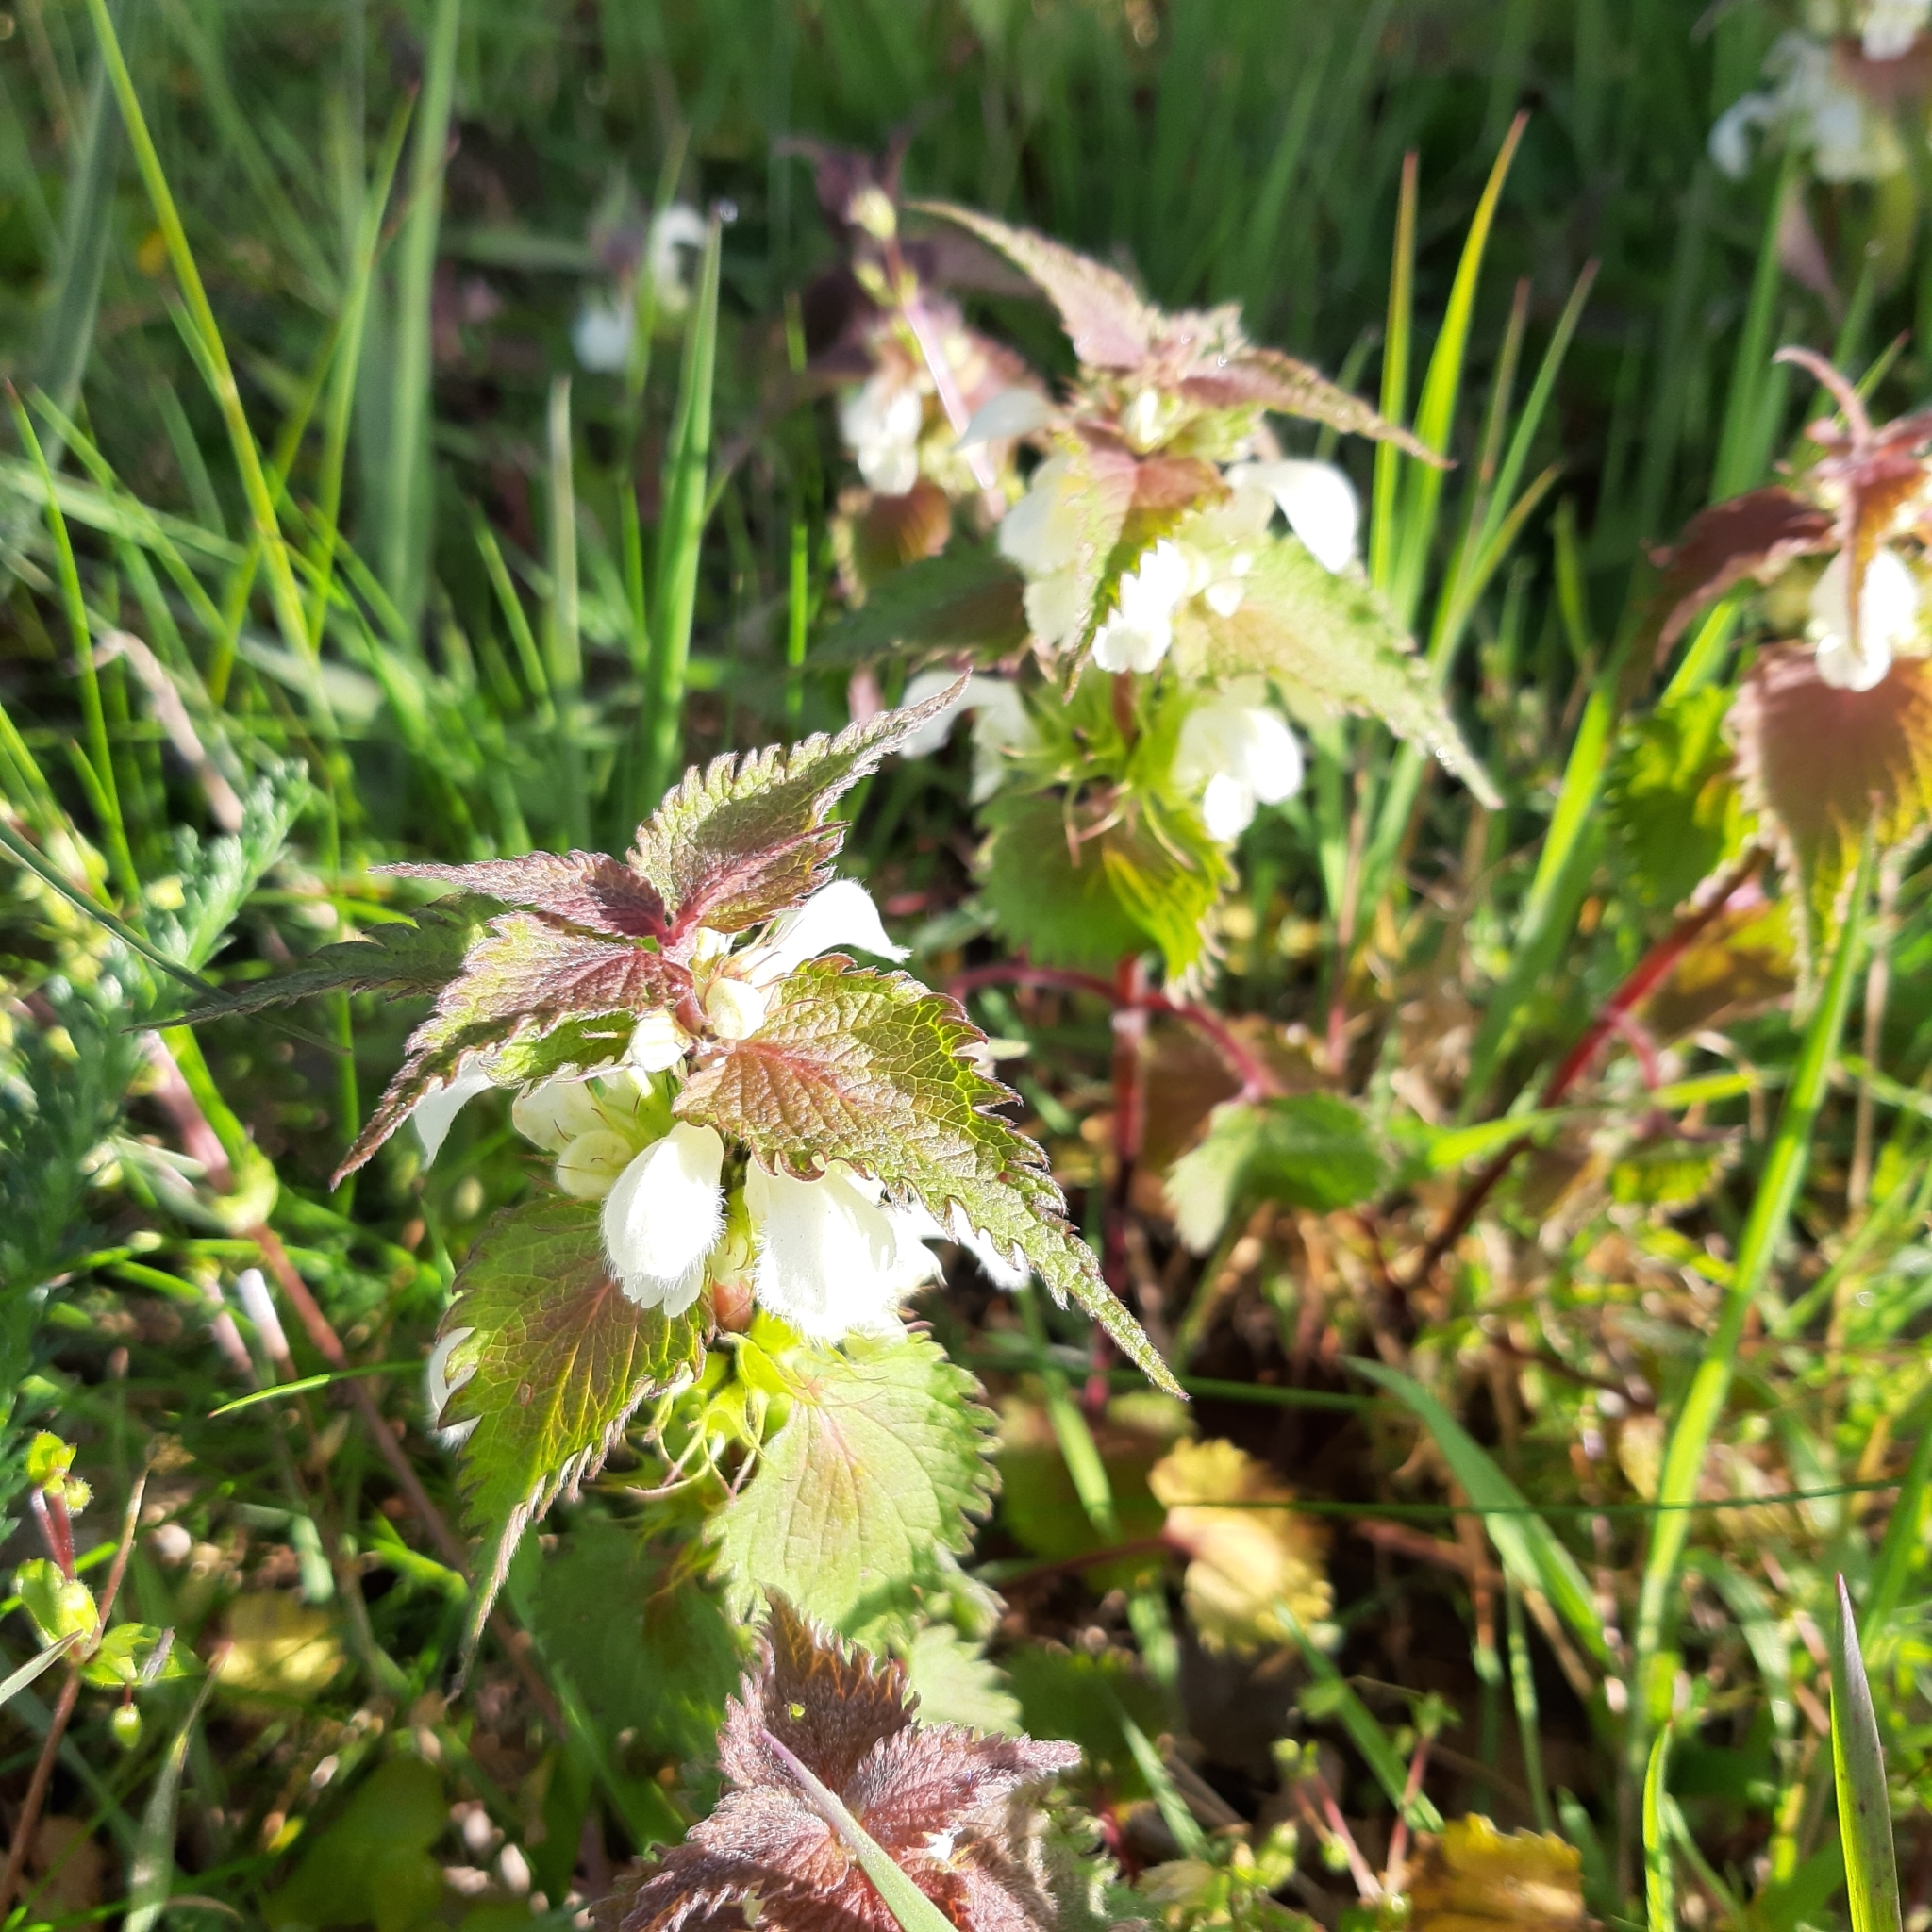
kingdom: Plantae
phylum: Tracheophyta
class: Magnoliopsida
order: Lamiales
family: Lamiaceae
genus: Lamium
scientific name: Lamium album
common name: White dead-nettle
